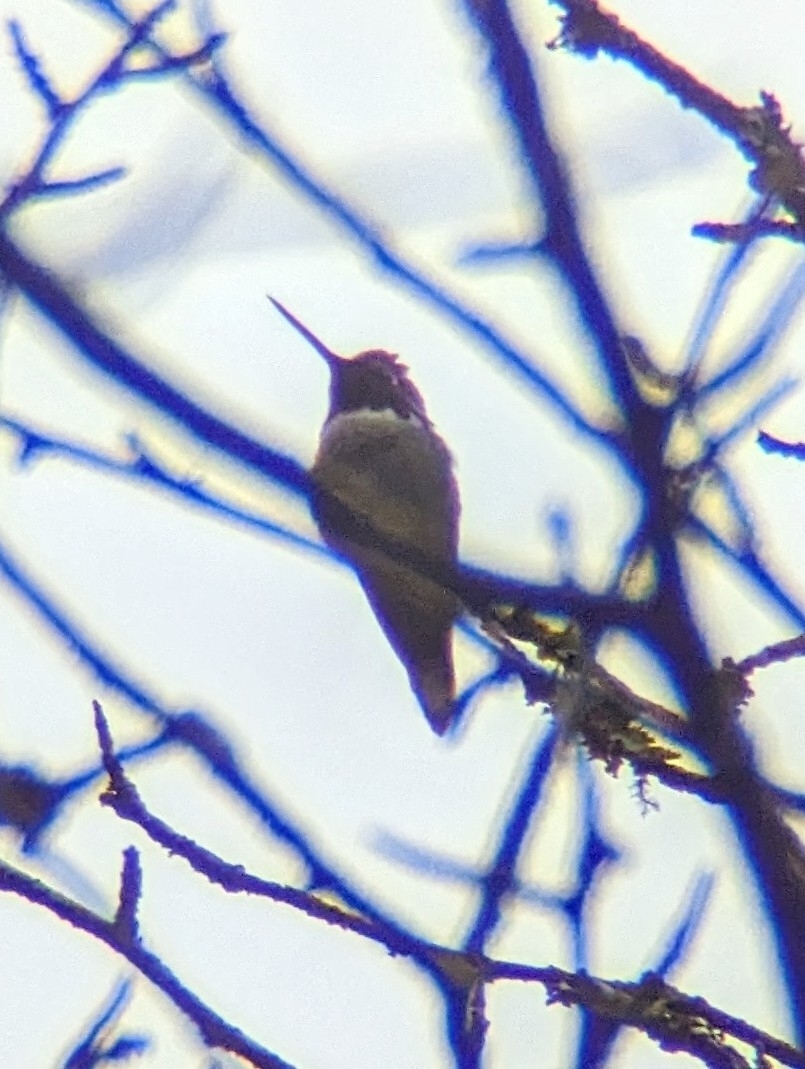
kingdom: Animalia
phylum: Chordata
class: Aves
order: Apodiformes
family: Trochilidae
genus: Calypte
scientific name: Calypte anna
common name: Anna's hummingbird
